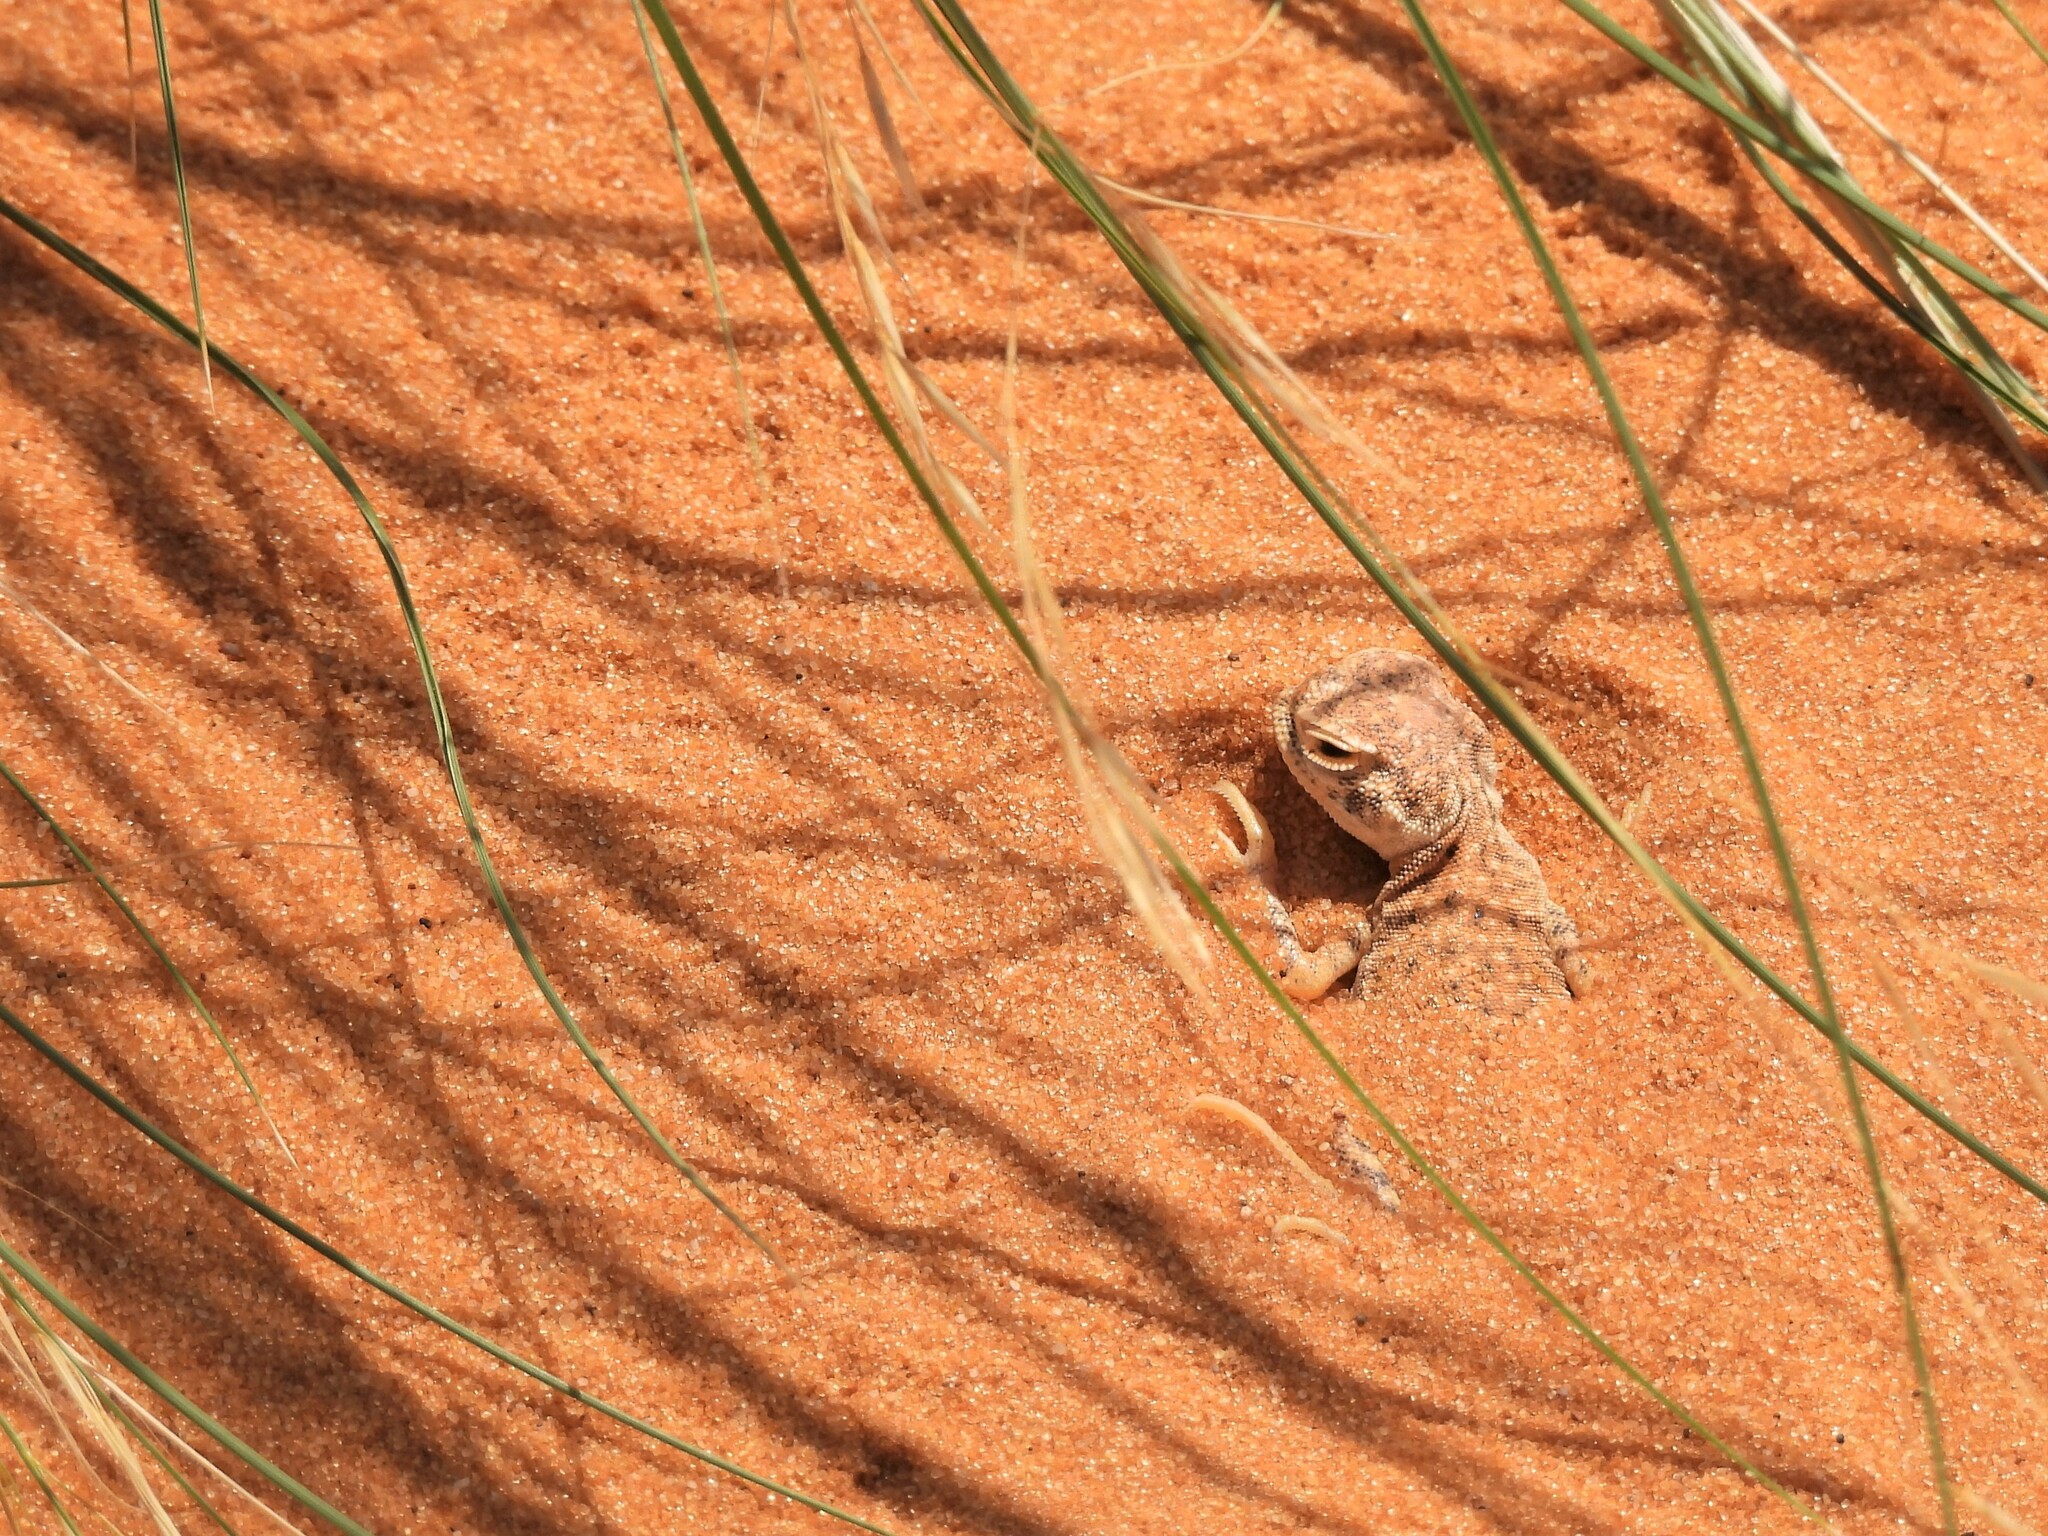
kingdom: Animalia
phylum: Chordata
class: Squamata
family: Agamidae
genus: Phrynocephalus
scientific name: Phrynocephalus arabicus
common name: Arabian toad-headed agama
